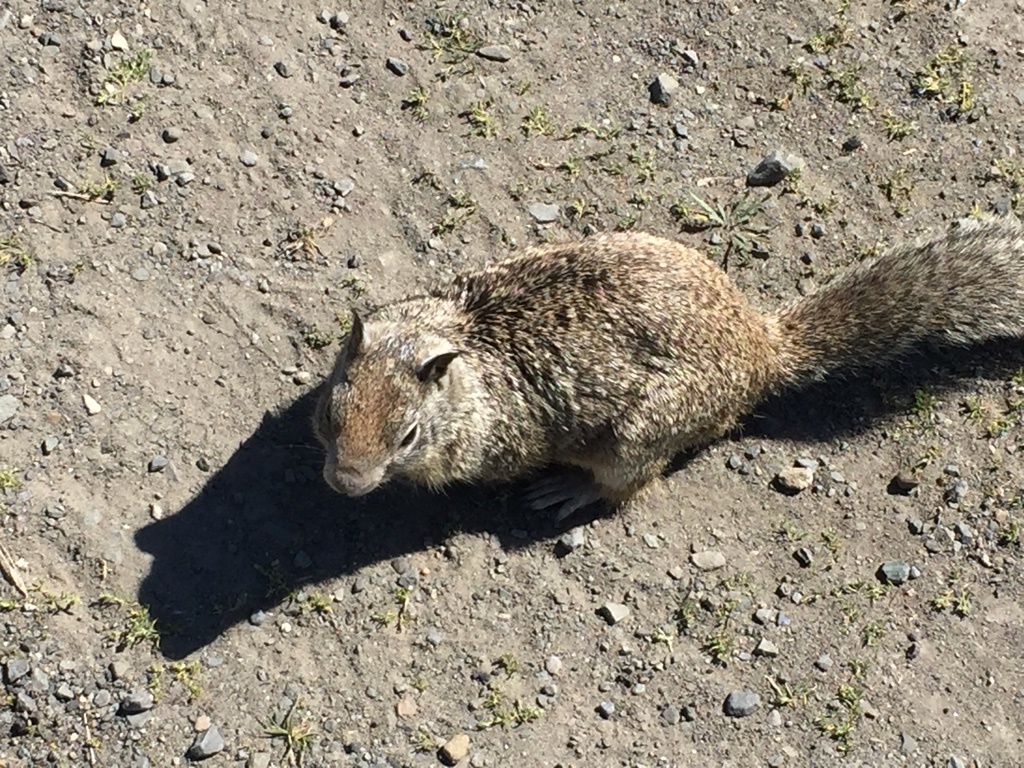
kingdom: Animalia
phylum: Chordata
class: Mammalia
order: Rodentia
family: Sciuridae
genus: Otospermophilus
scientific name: Otospermophilus beecheyi
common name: California ground squirrel
